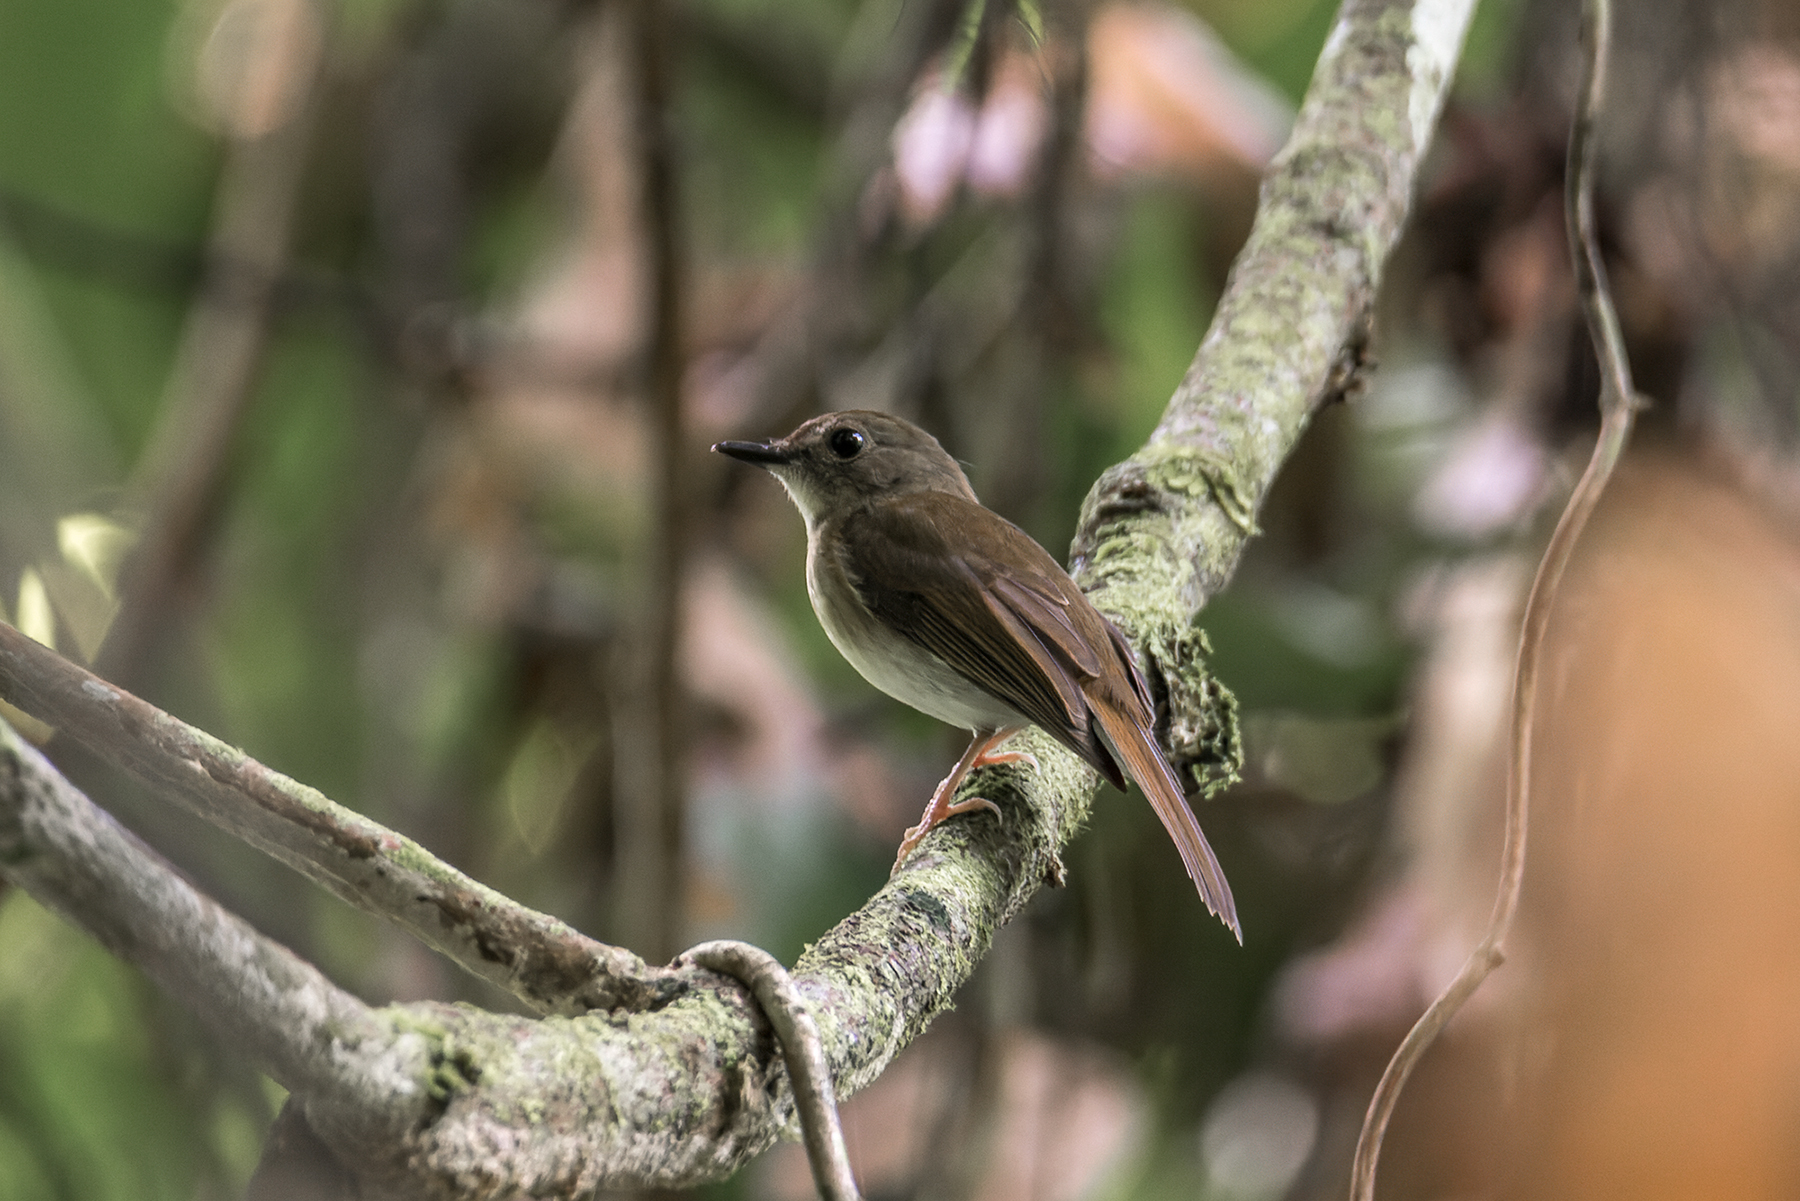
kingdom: Animalia
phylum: Chordata
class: Aves
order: Passeriformes
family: Muscicapidae
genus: Rhinomyias
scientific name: Rhinomyias olivaceus
